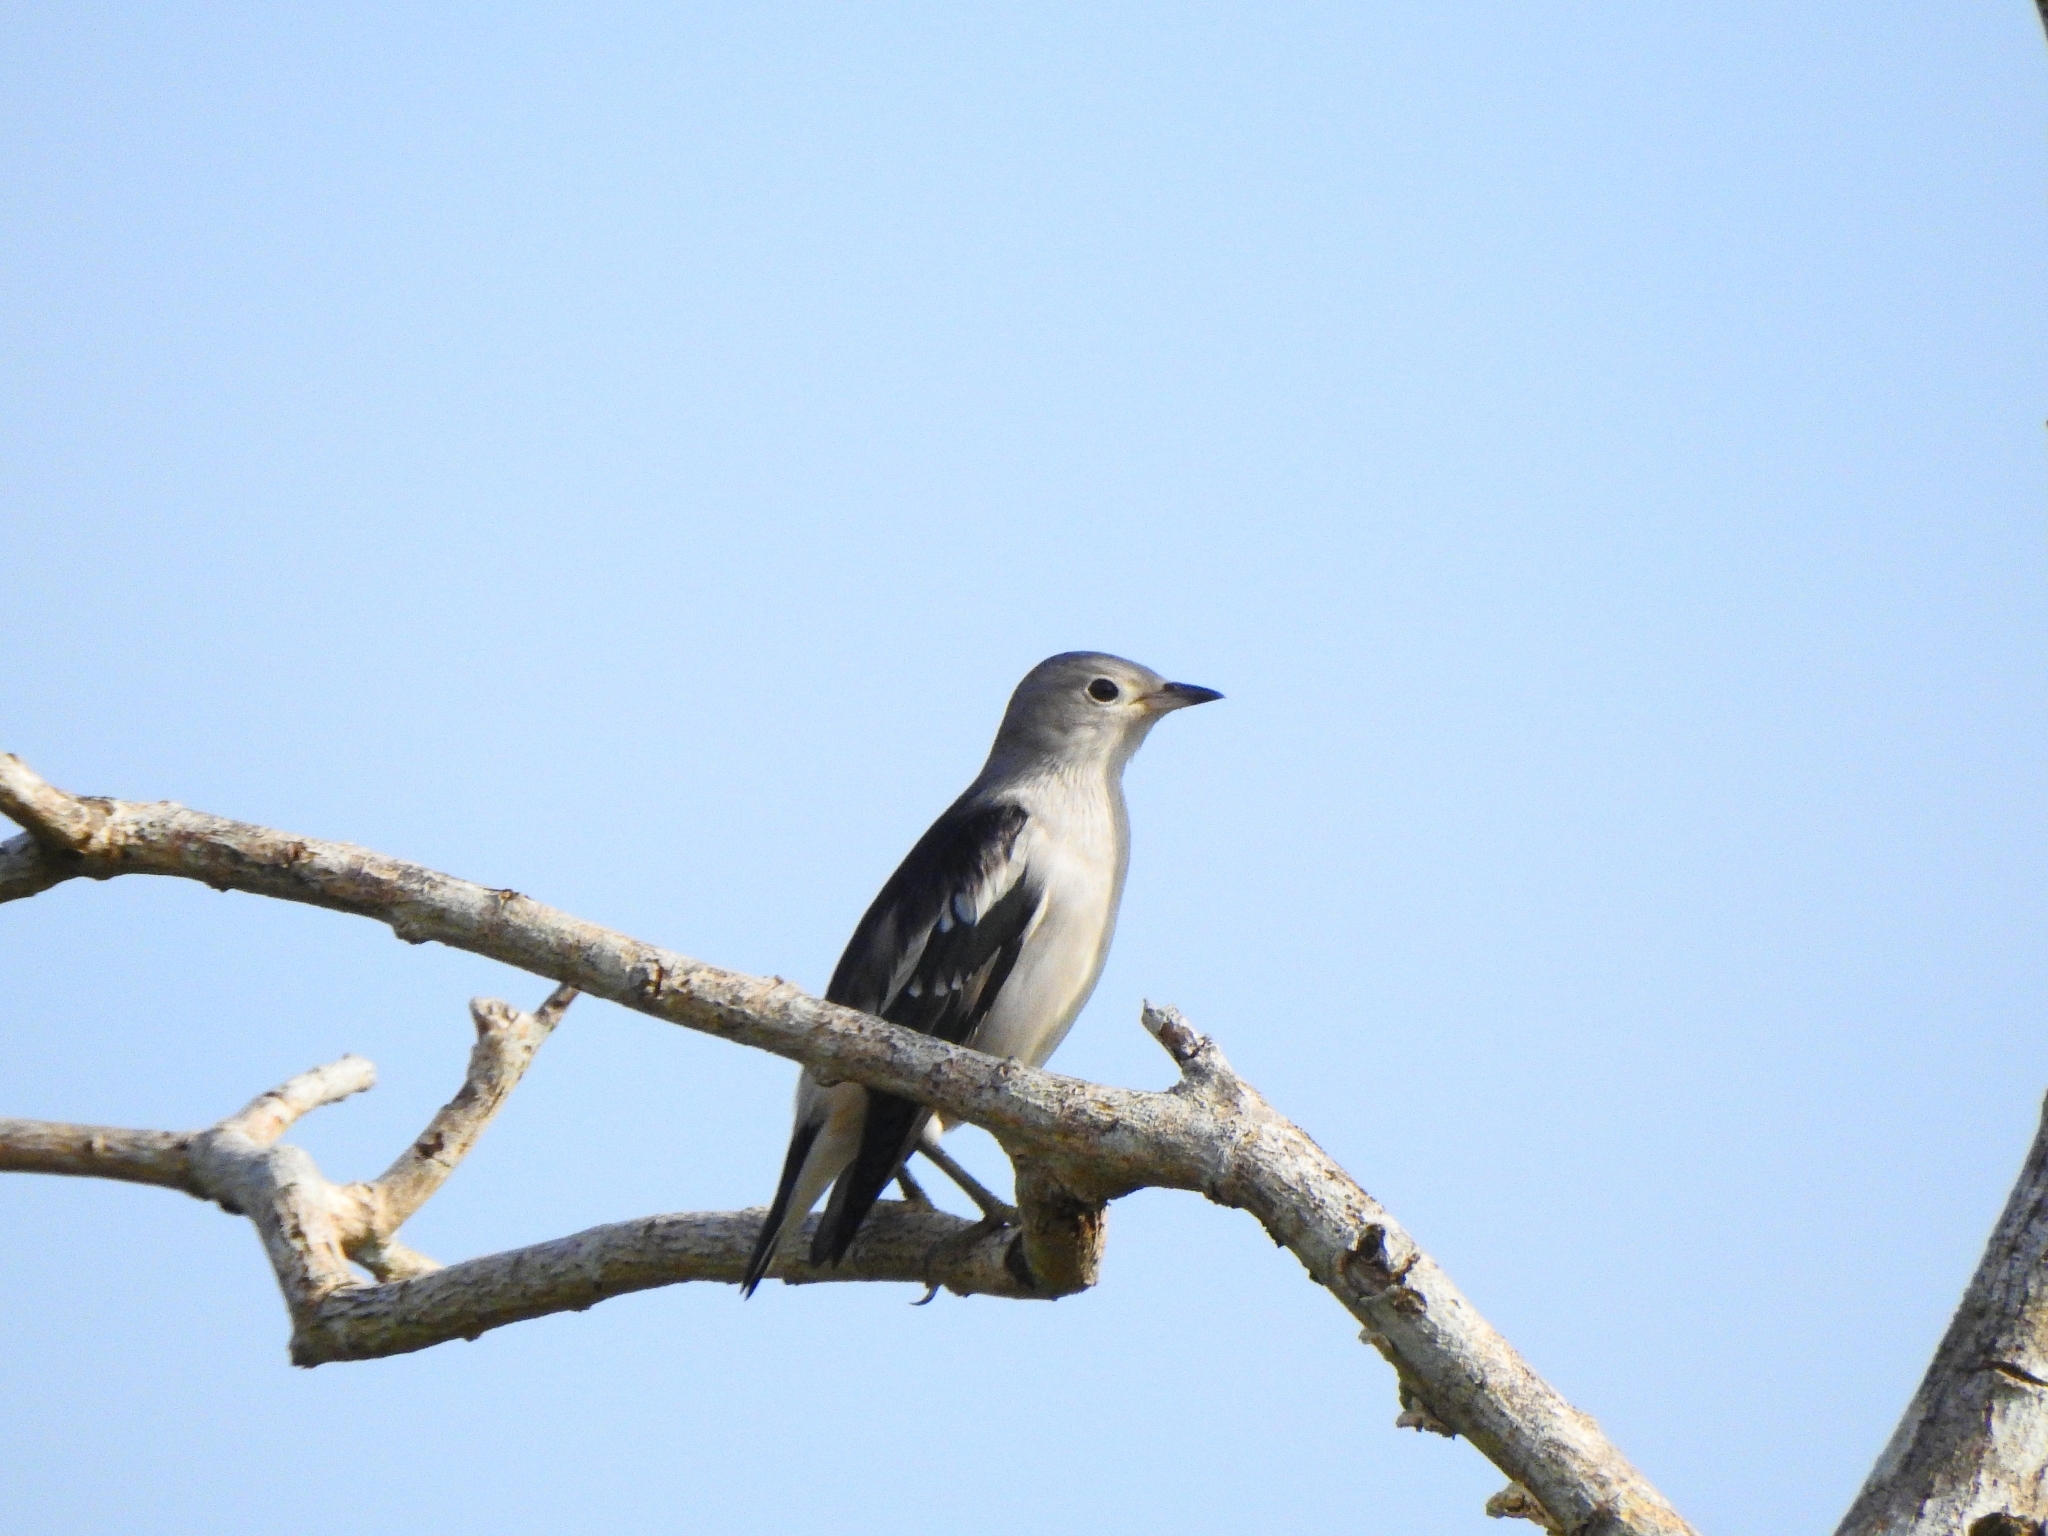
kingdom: Animalia
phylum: Chordata
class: Aves
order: Passeriformes
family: Sturnidae
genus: Agropsar
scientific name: Agropsar sturninus
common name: Daurian starling
